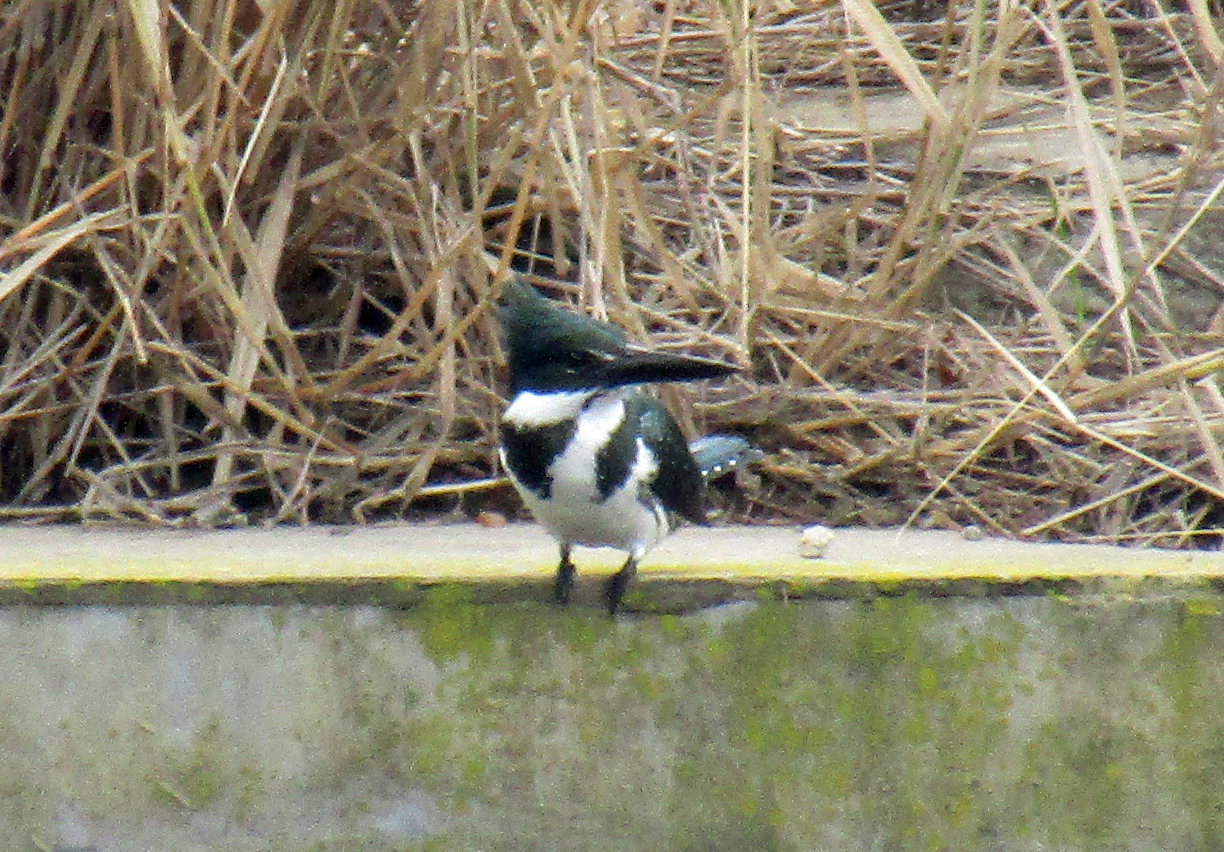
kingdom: Animalia
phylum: Chordata
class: Aves
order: Coraciiformes
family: Alcedinidae
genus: Chloroceryle
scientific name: Chloroceryle amazona
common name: Amazon kingfisher
